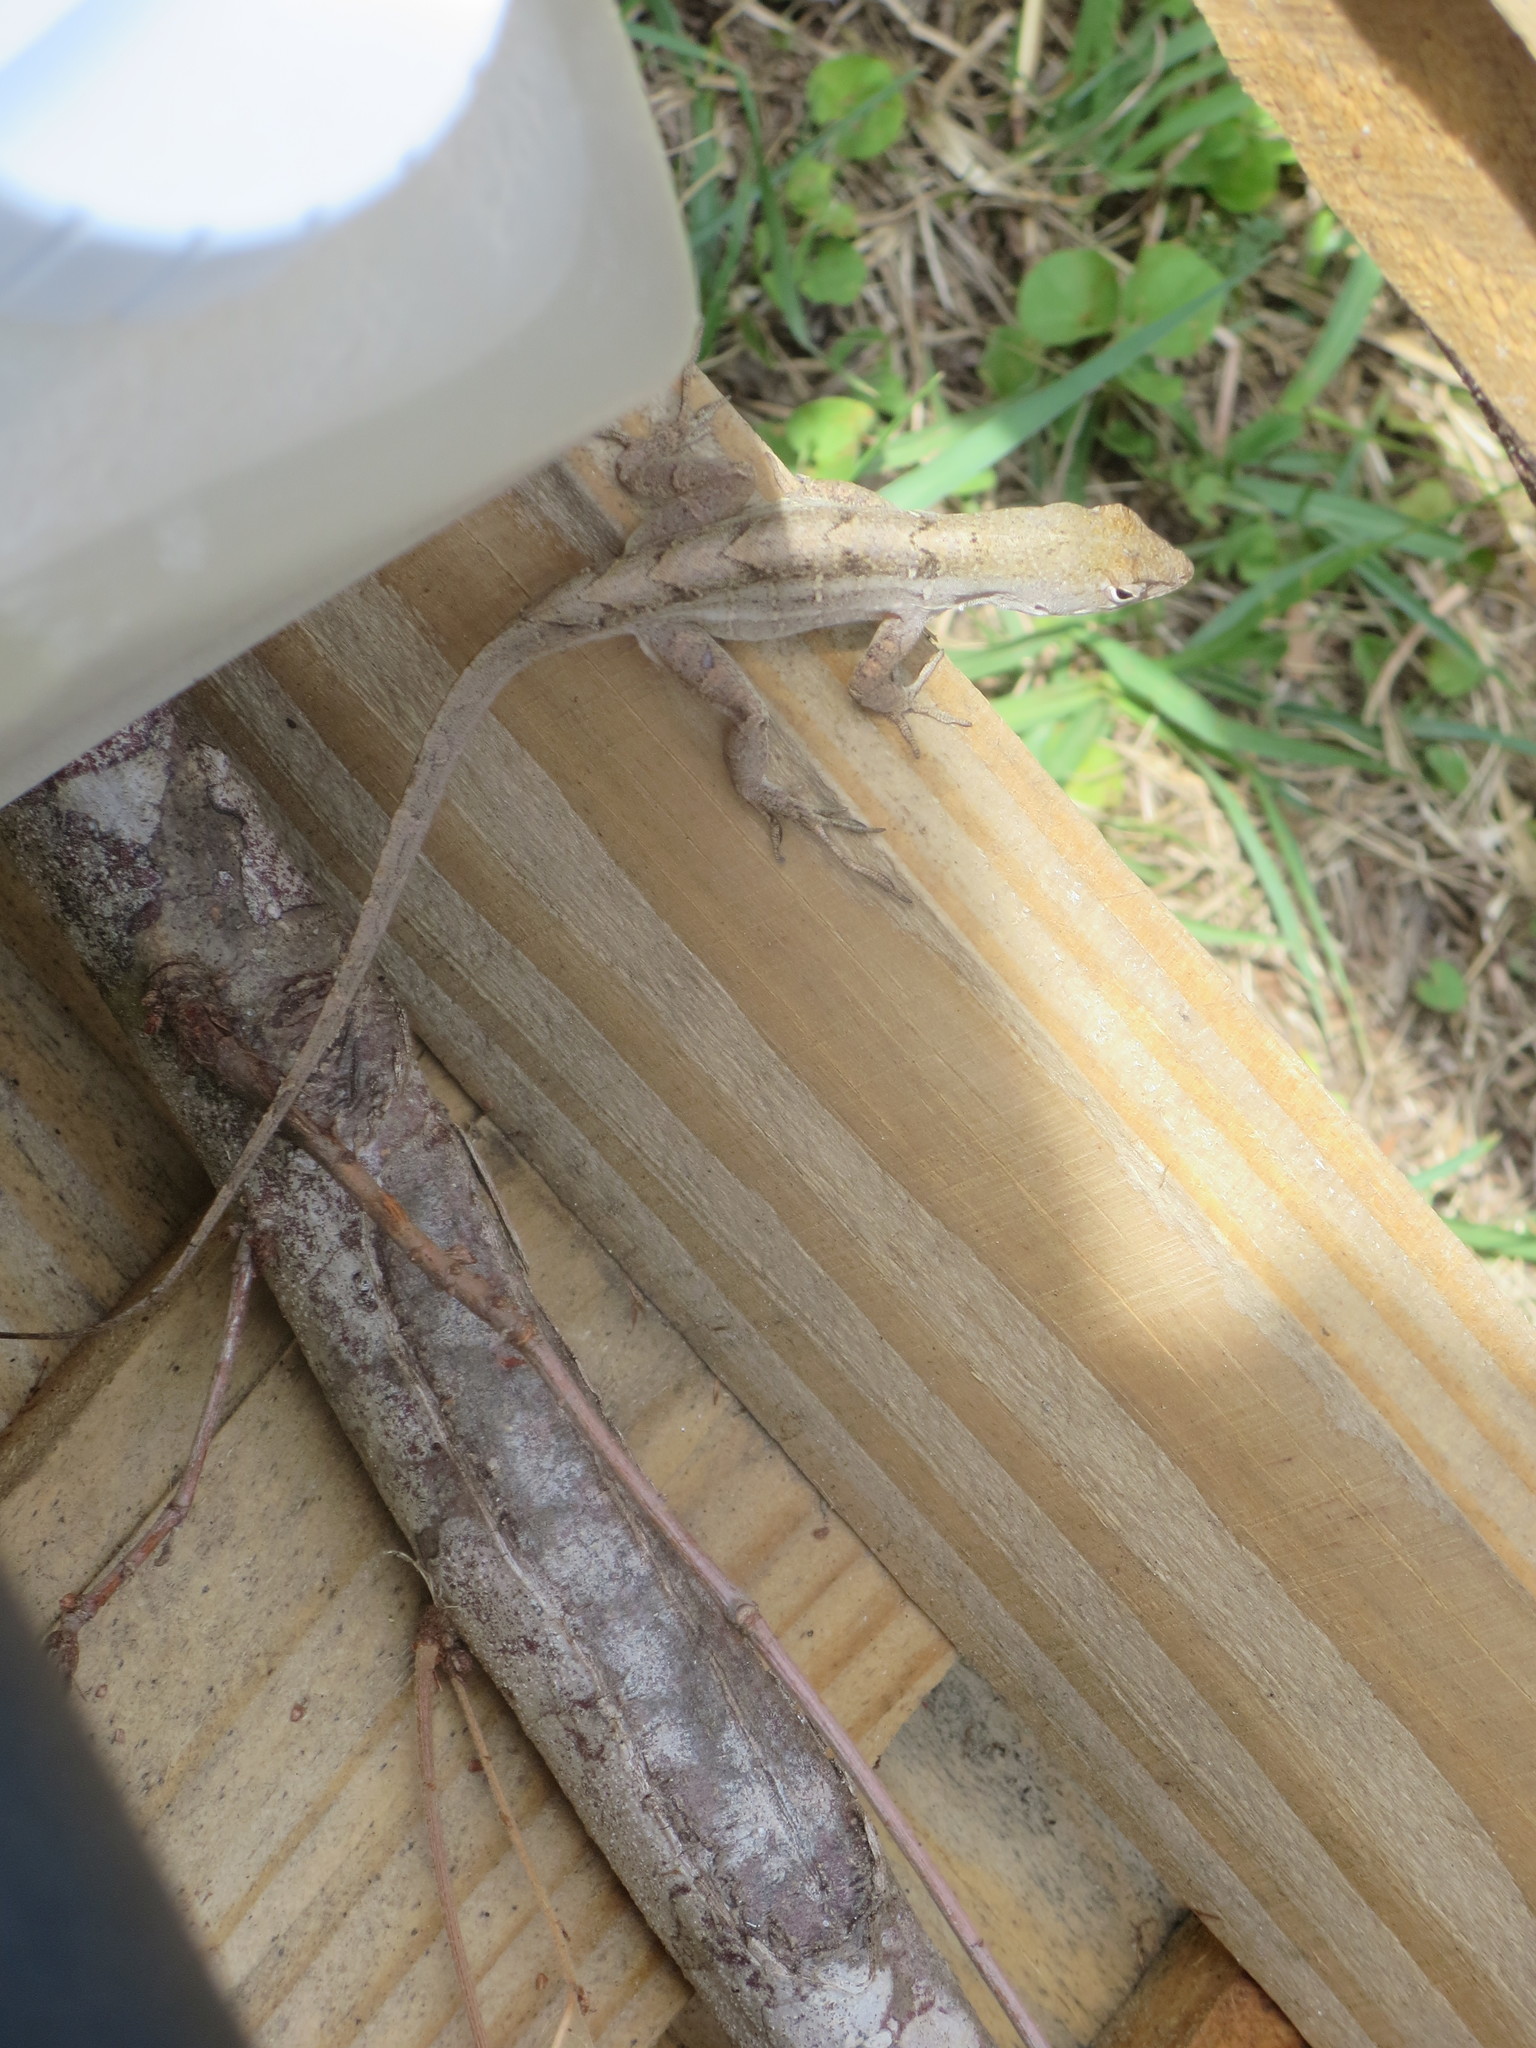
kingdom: Animalia
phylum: Chordata
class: Squamata
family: Dactyloidae
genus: Anolis
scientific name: Anolis sagrei
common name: Brown anole
